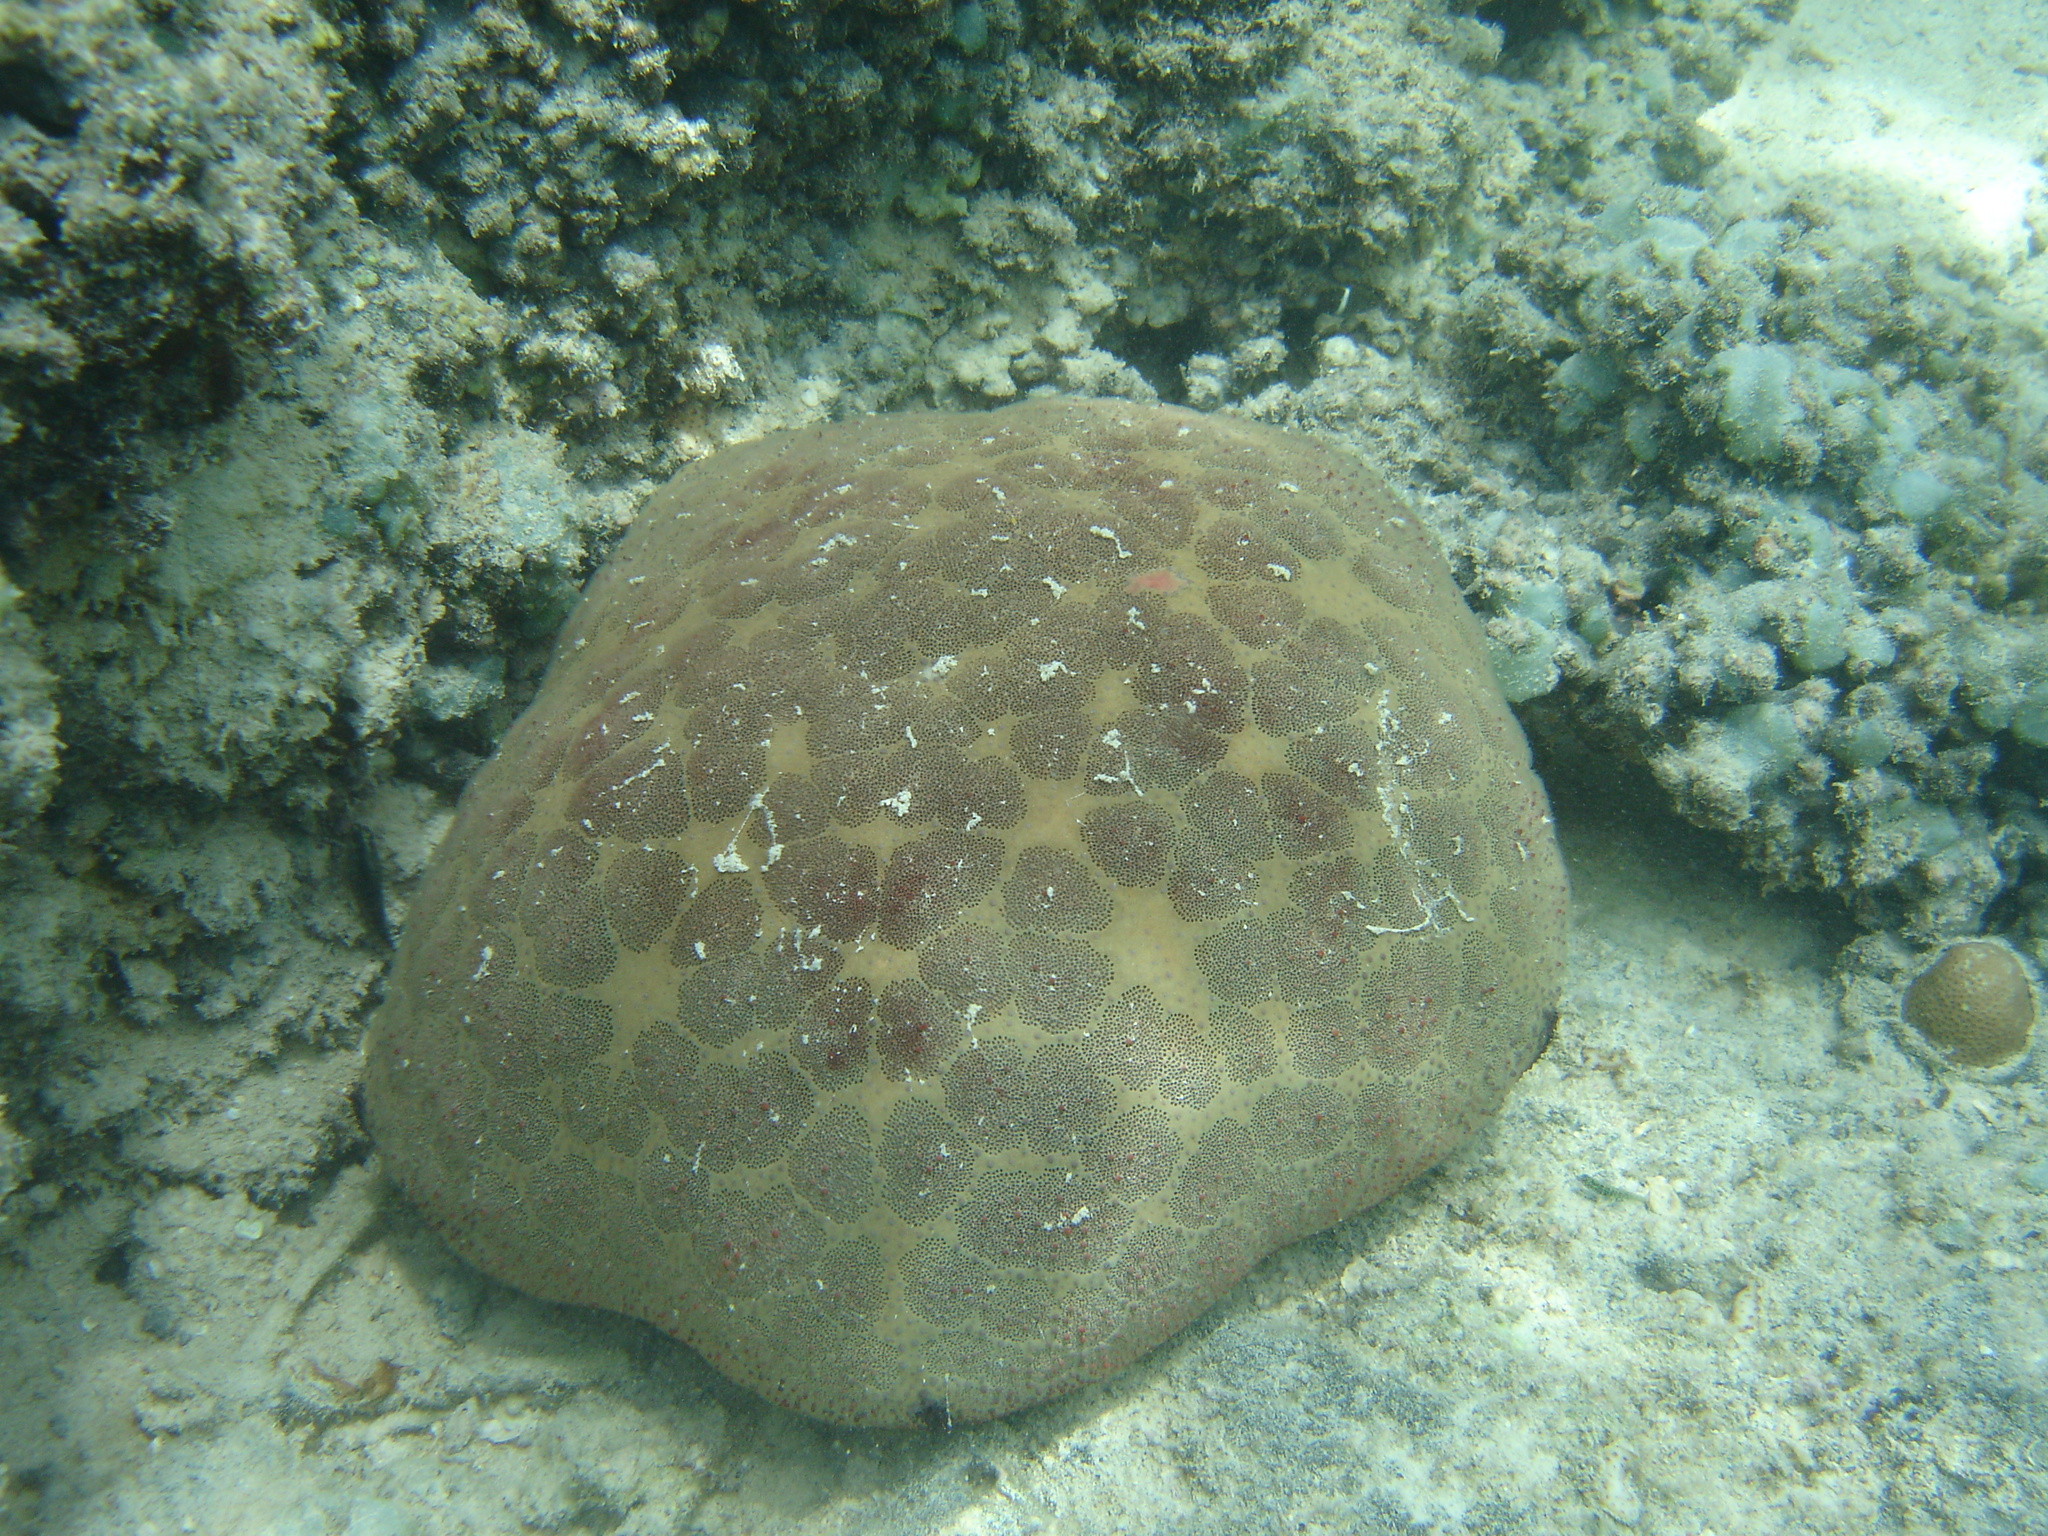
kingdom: Animalia
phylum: Echinodermata
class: Asteroidea
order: Valvatida
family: Oreasteridae
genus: Culcita
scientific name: Culcita novaeguineae
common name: Cushion star
